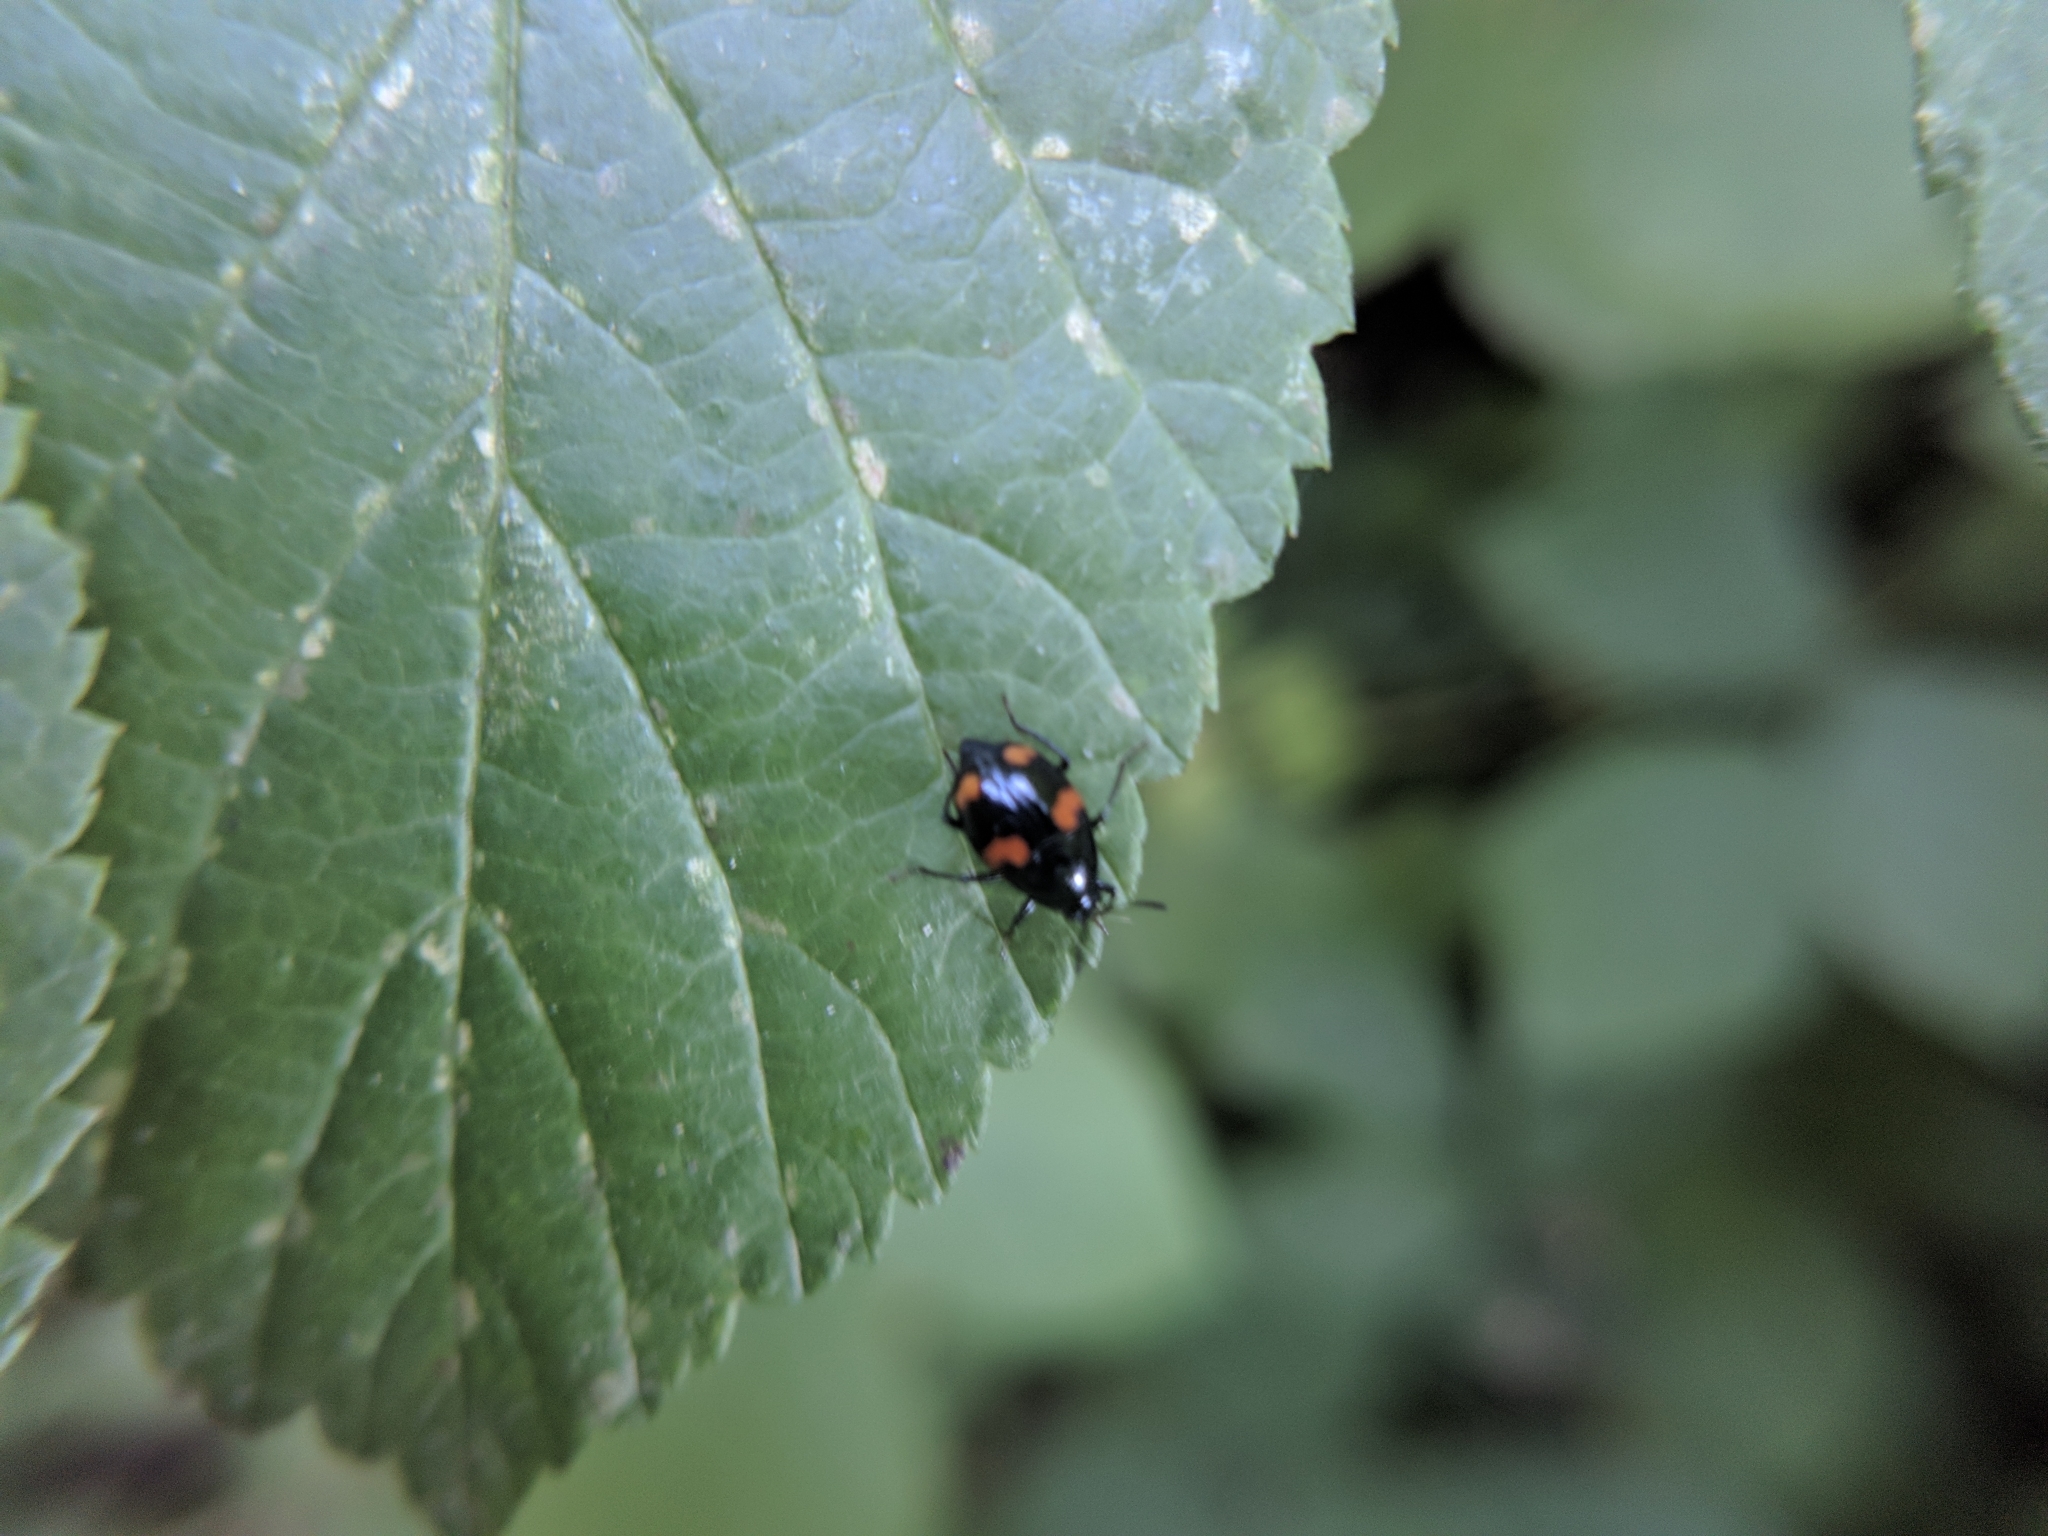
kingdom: Animalia
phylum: Arthropoda
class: Insecta
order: Coleoptera
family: Staphylinidae
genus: Scaphidium
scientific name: Scaphidium quadrimaculatum
